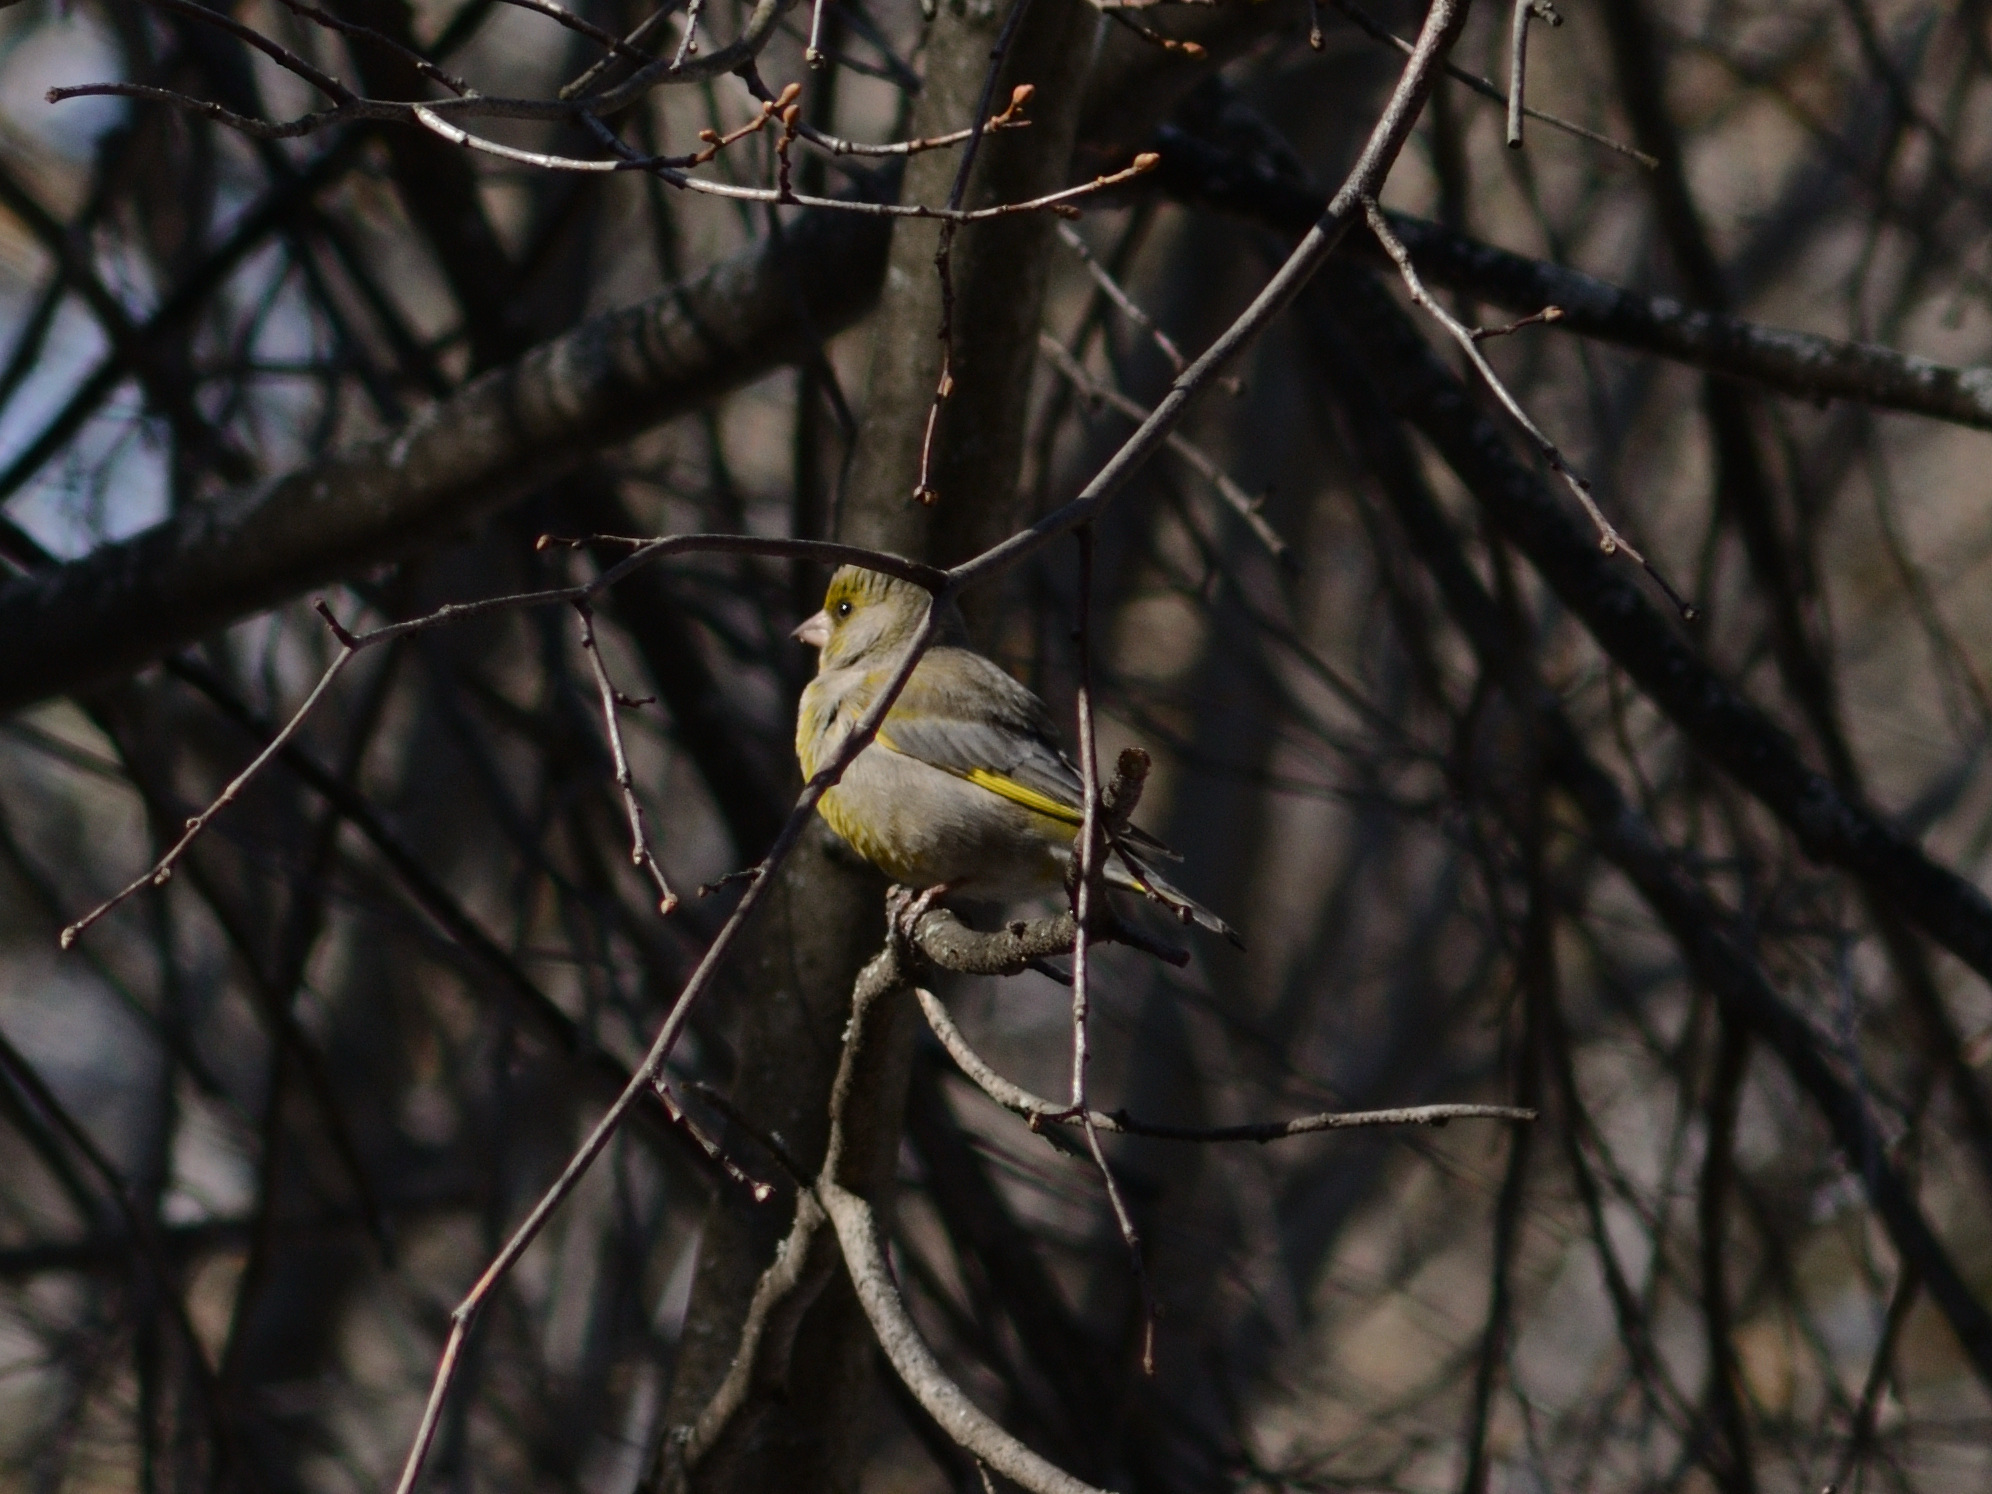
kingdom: Plantae
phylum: Tracheophyta
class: Liliopsida
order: Poales
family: Poaceae
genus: Chloris
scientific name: Chloris chloris
